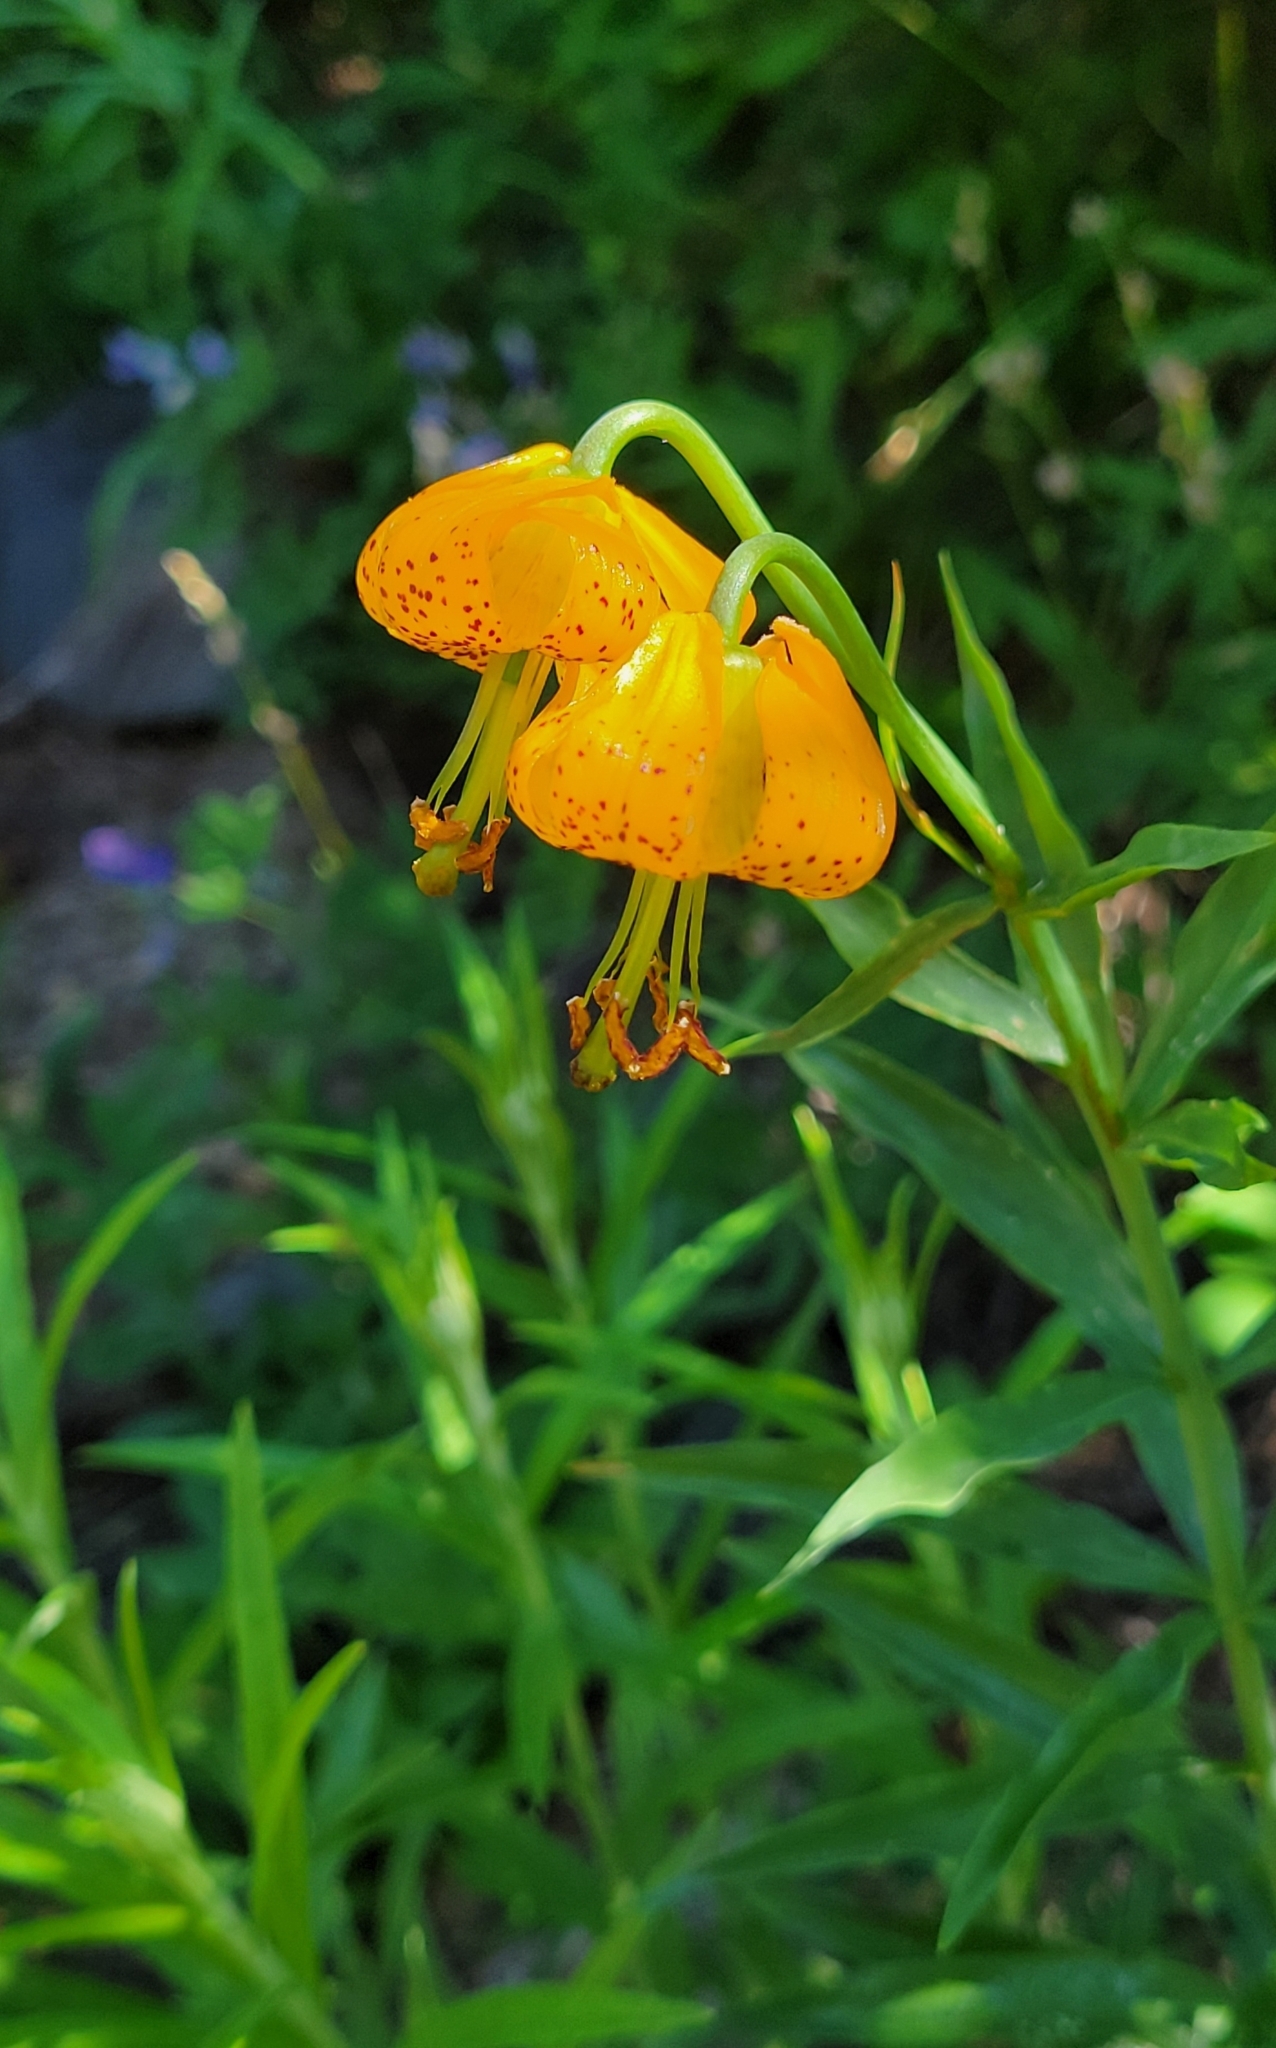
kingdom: Plantae
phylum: Tracheophyta
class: Liliopsida
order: Liliales
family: Liliaceae
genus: Lilium
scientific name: Lilium columbianum
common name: Columbia lily
